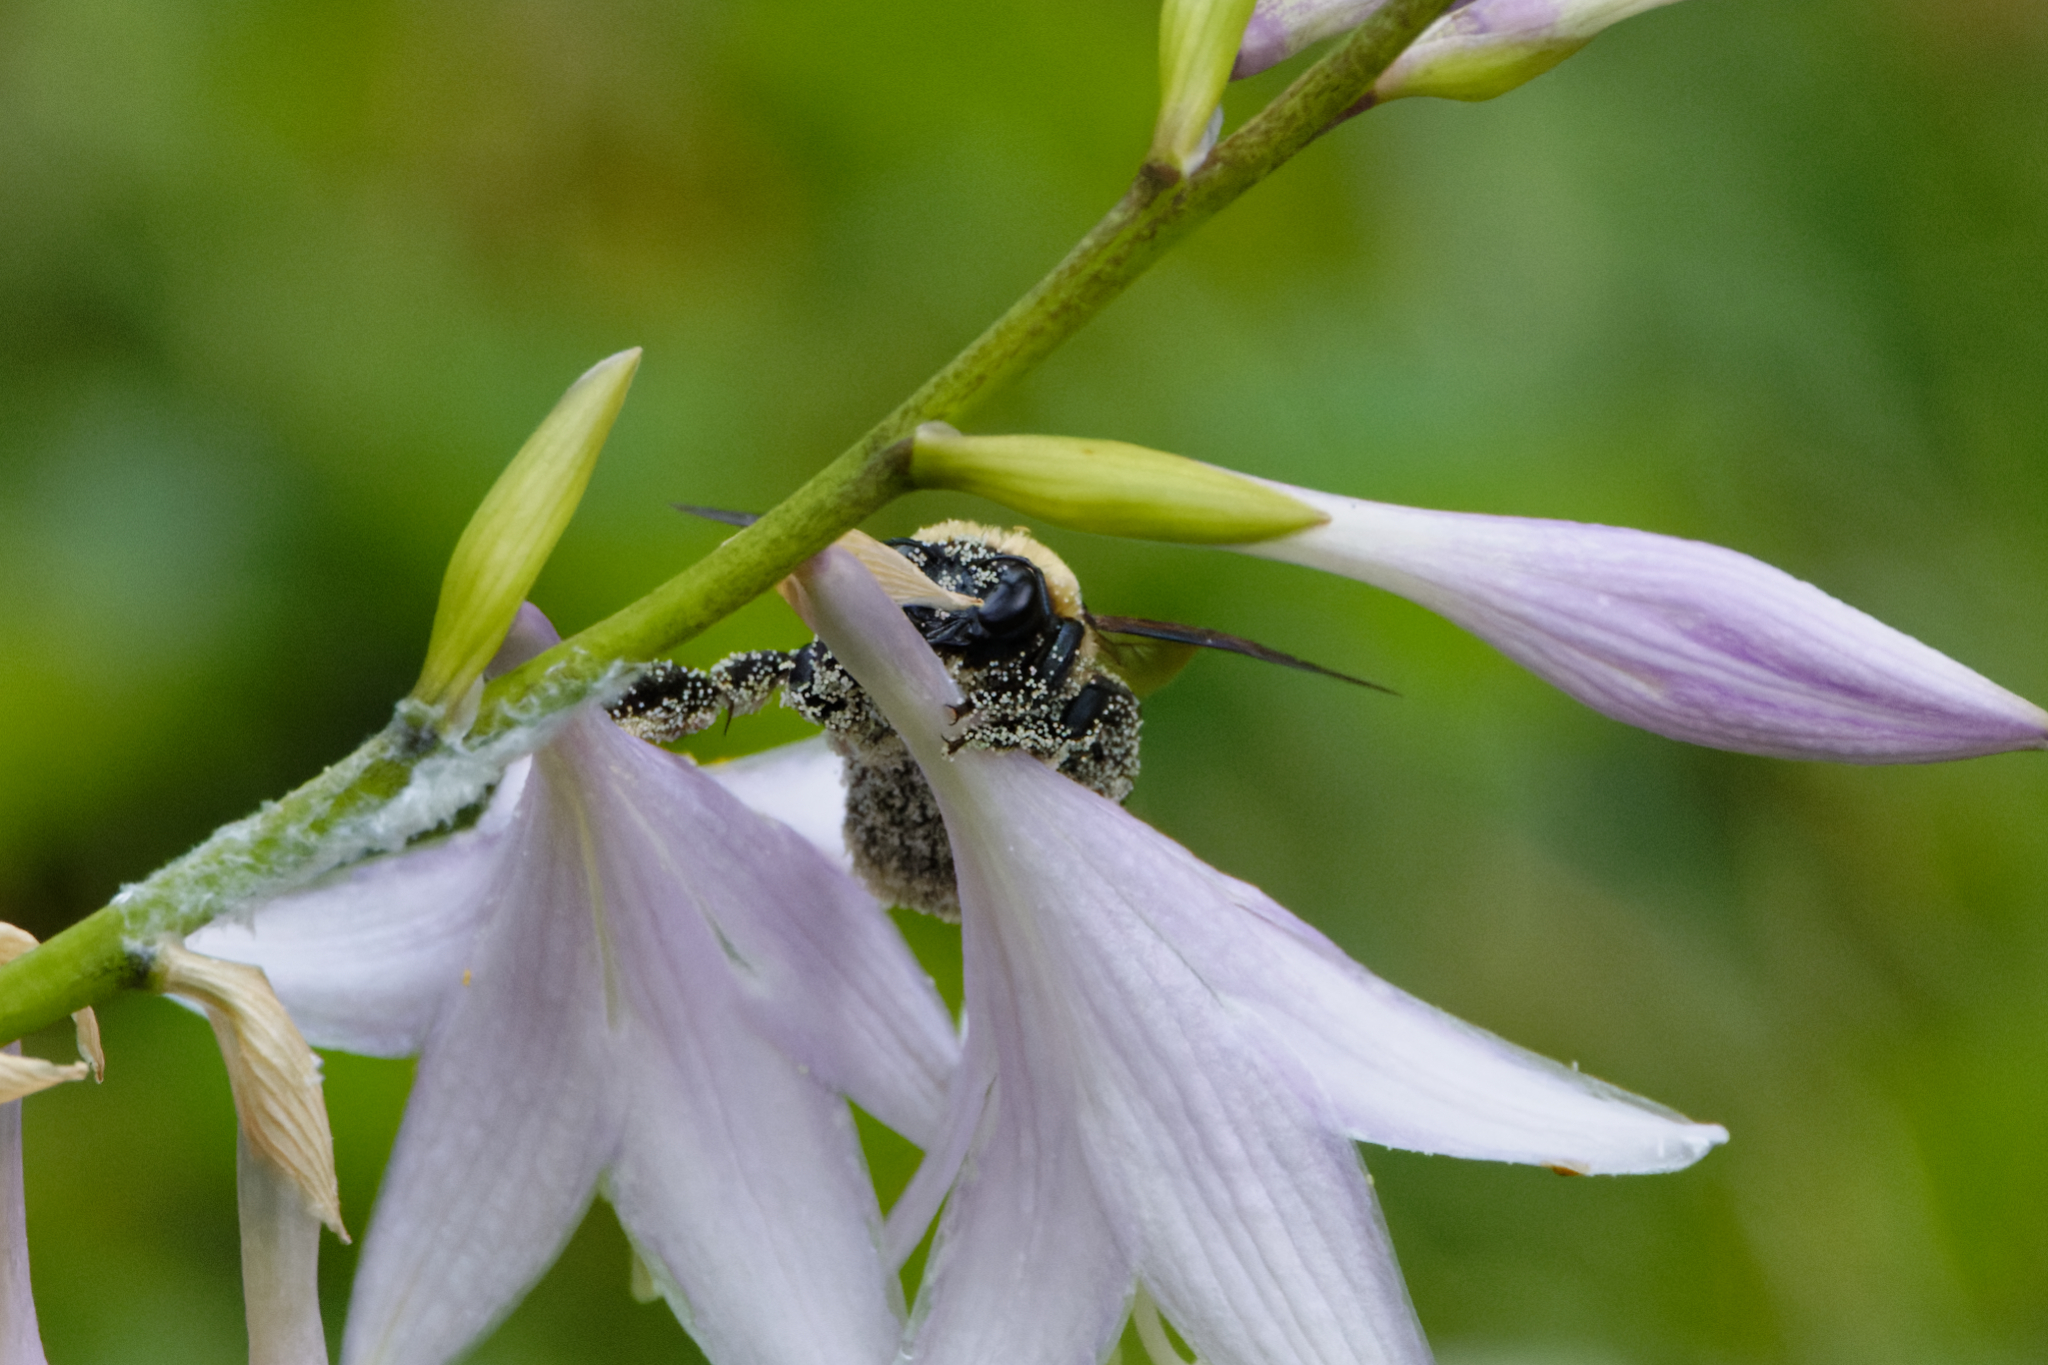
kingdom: Animalia
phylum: Arthropoda
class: Insecta
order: Hymenoptera
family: Apidae
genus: Xylocopa
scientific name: Xylocopa virginica
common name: Carpenter bee
